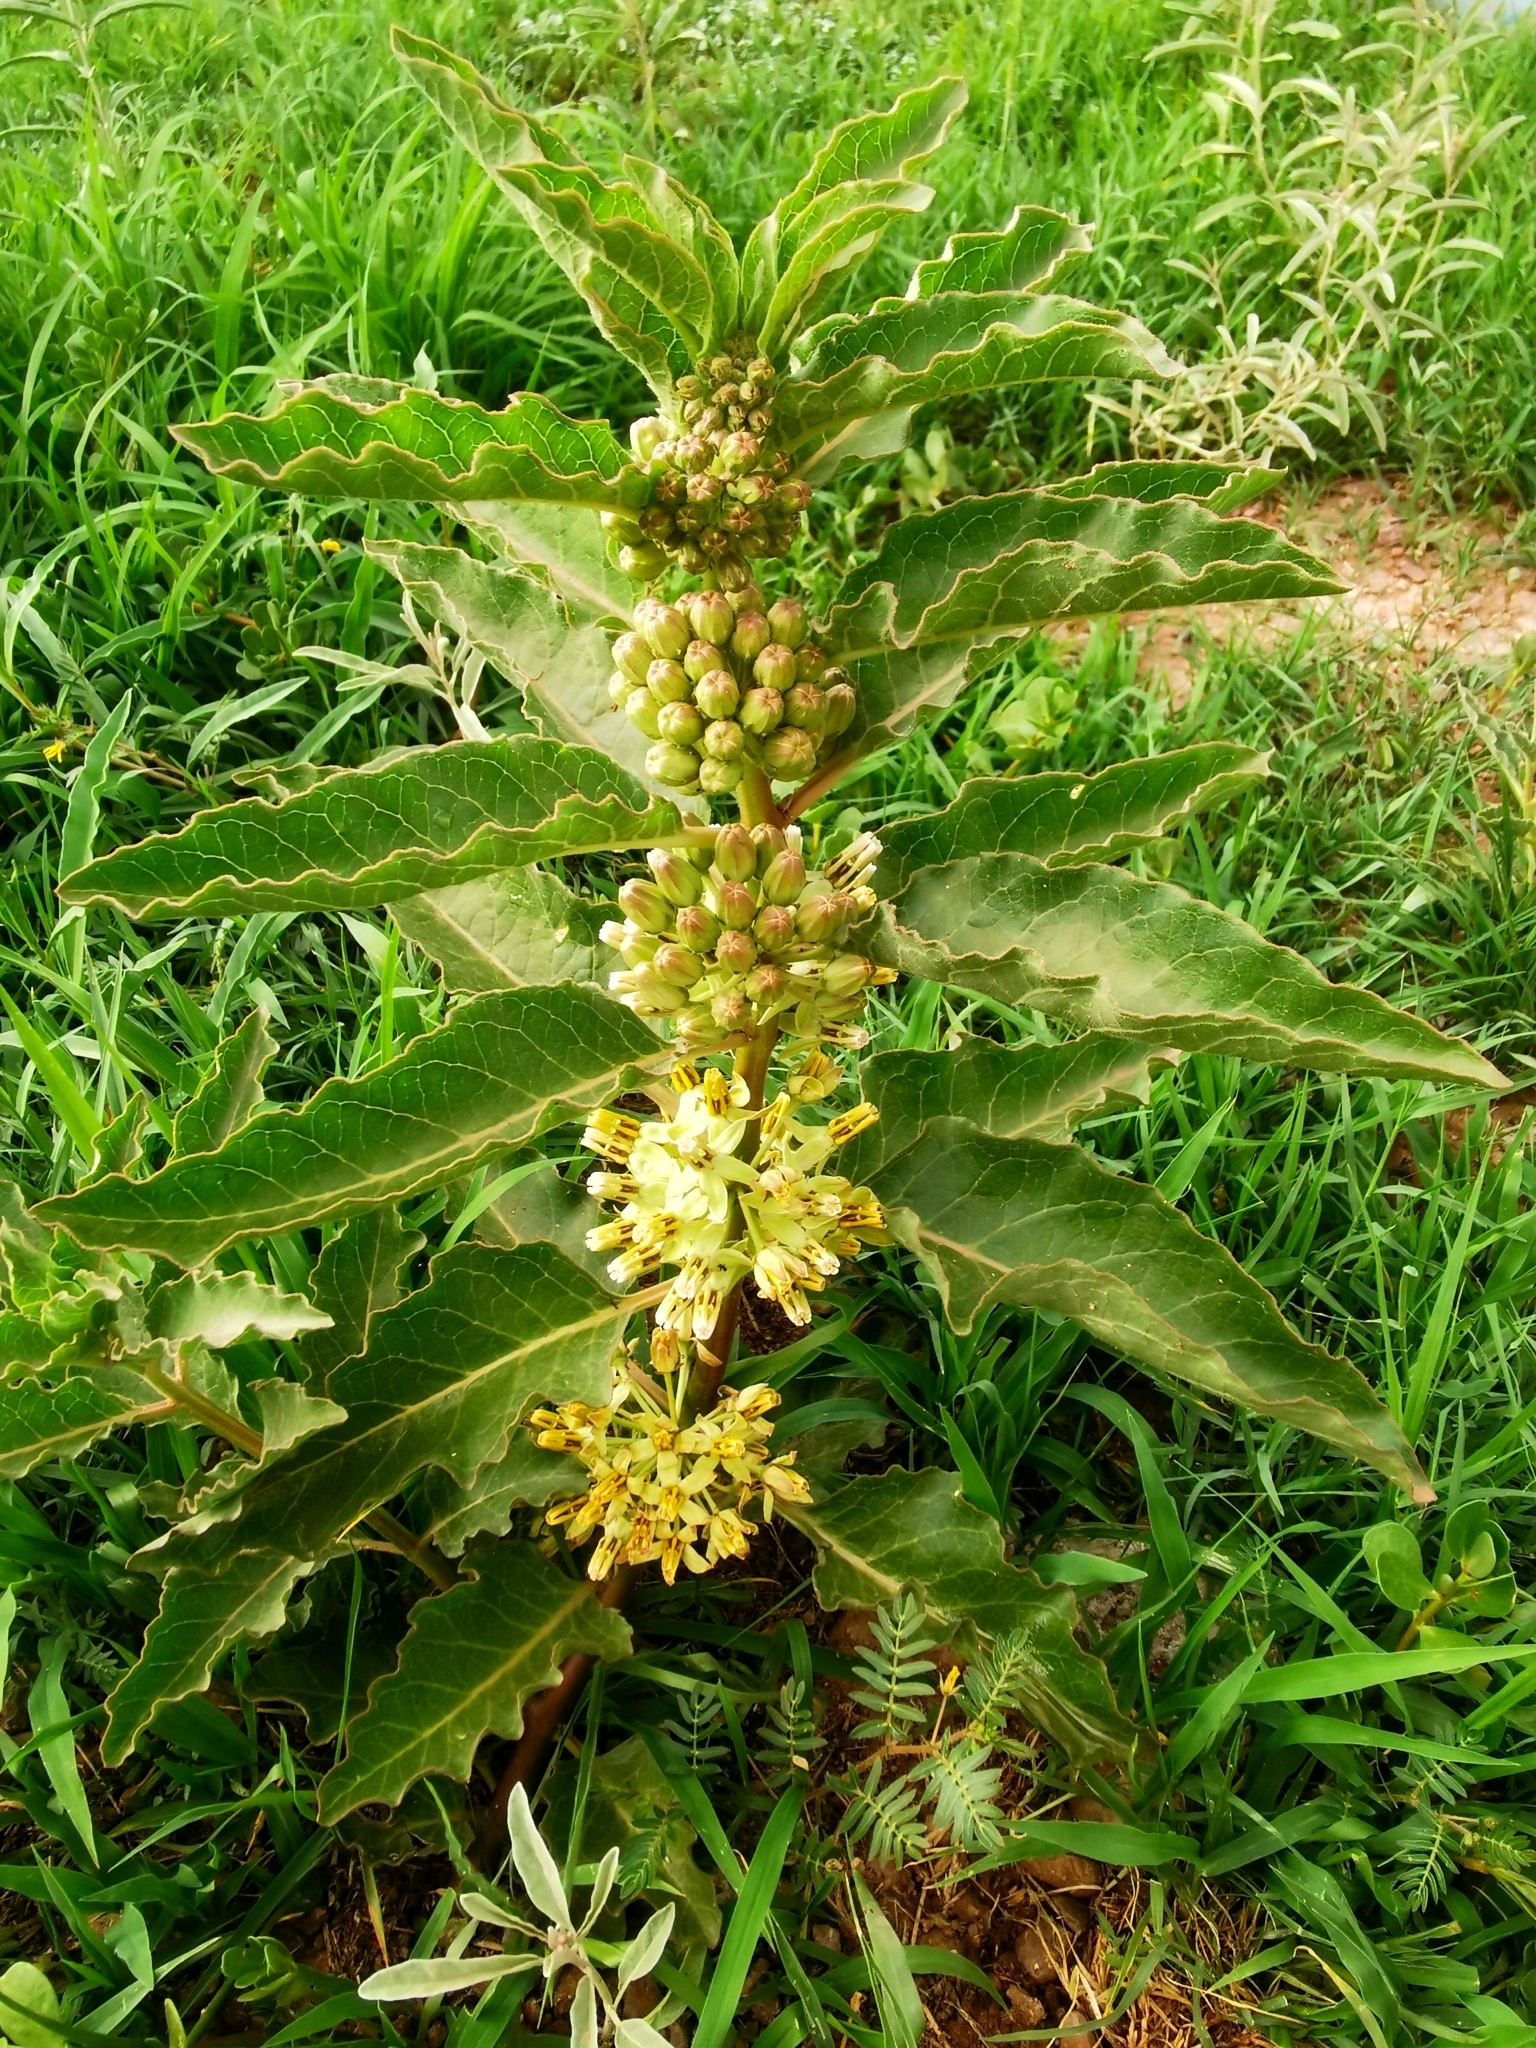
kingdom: Plantae
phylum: Tracheophyta
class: Magnoliopsida
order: Gentianales
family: Apocynaceae
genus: Asclepias
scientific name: Asclepias oenotheroides
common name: Zizotes milkweed
